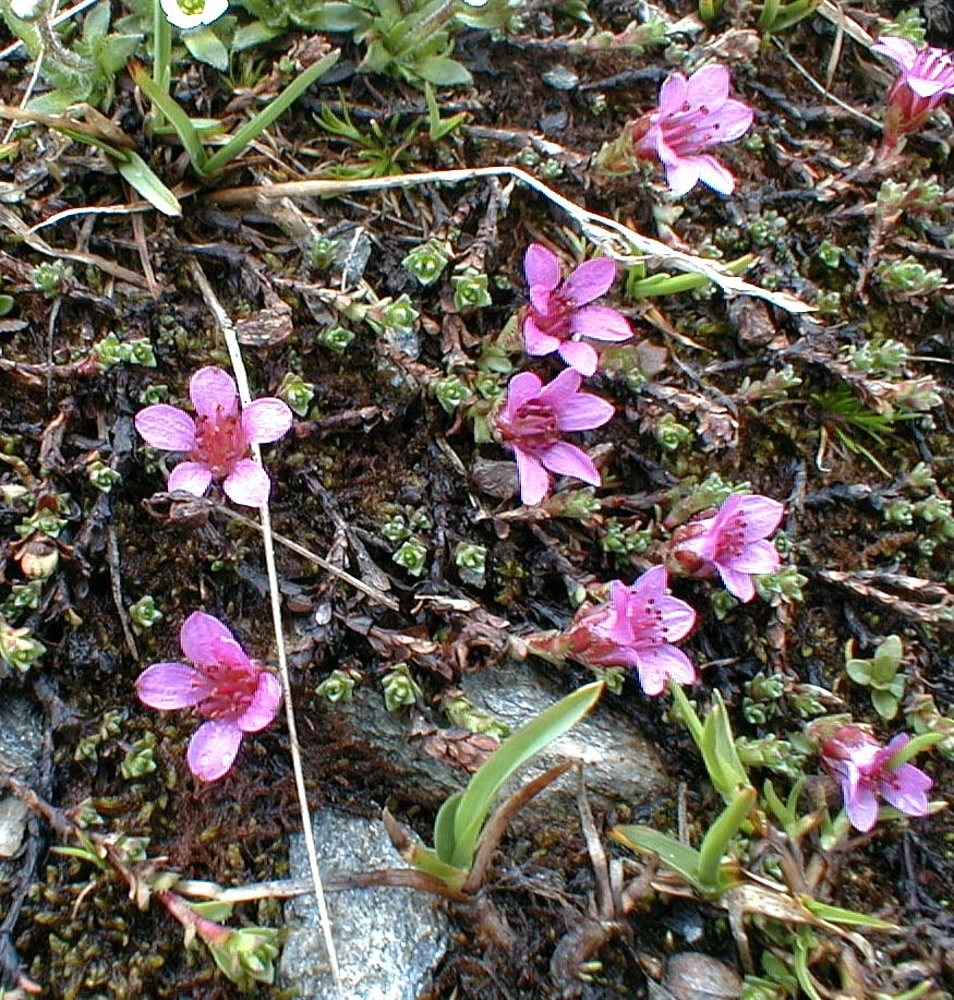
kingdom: Plantae
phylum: Tracheophyta
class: Magnoliopsida
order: Saxifragales
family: Saxifragaceae
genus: Saxifraga
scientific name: Saxifraga oppositifolia
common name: Purple saxifrage
